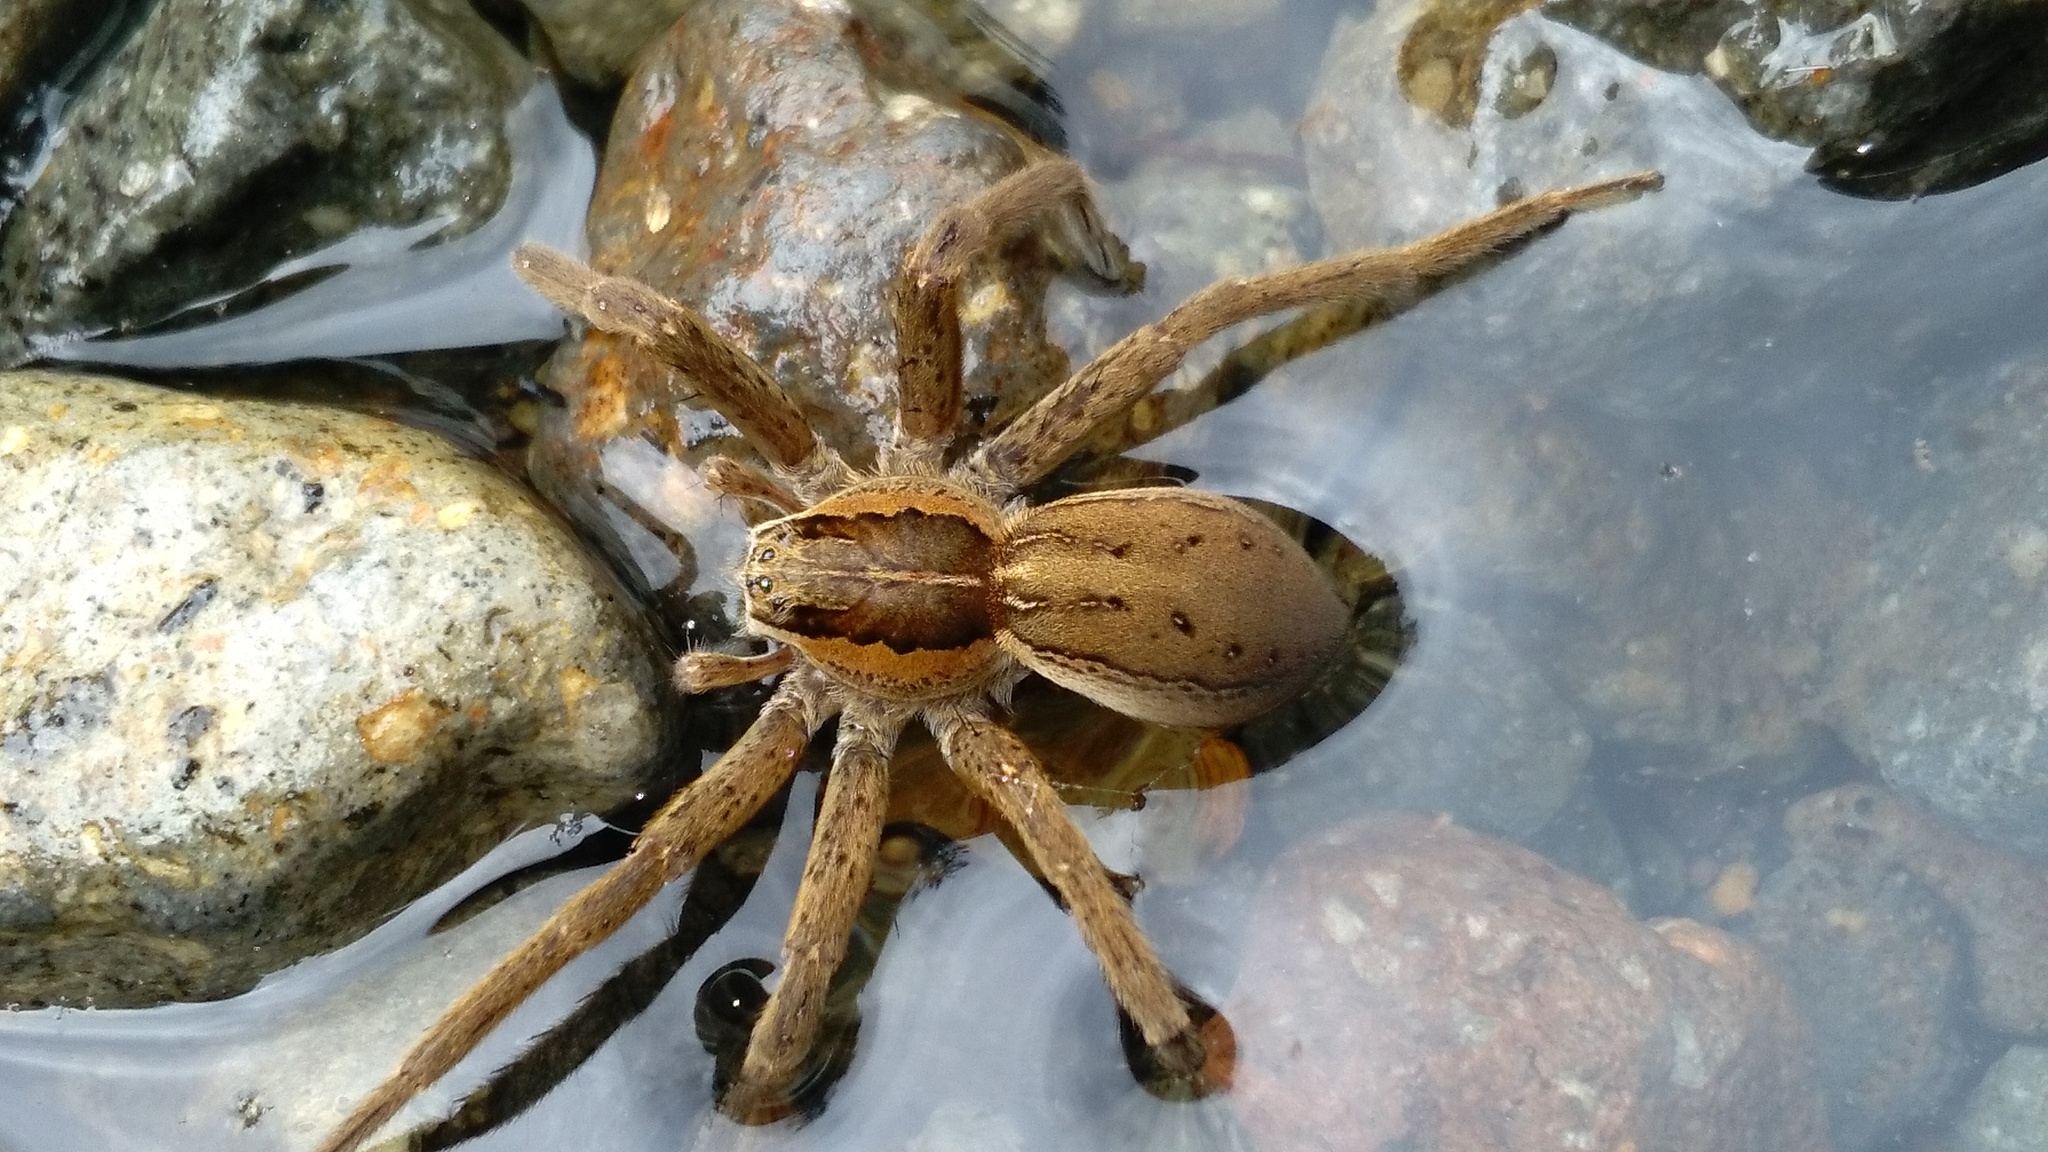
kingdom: Animalia
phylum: Arthropoda
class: Arachnida
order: Araneae
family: Pisauridae
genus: Dolomedes
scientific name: Dolomedes minor
